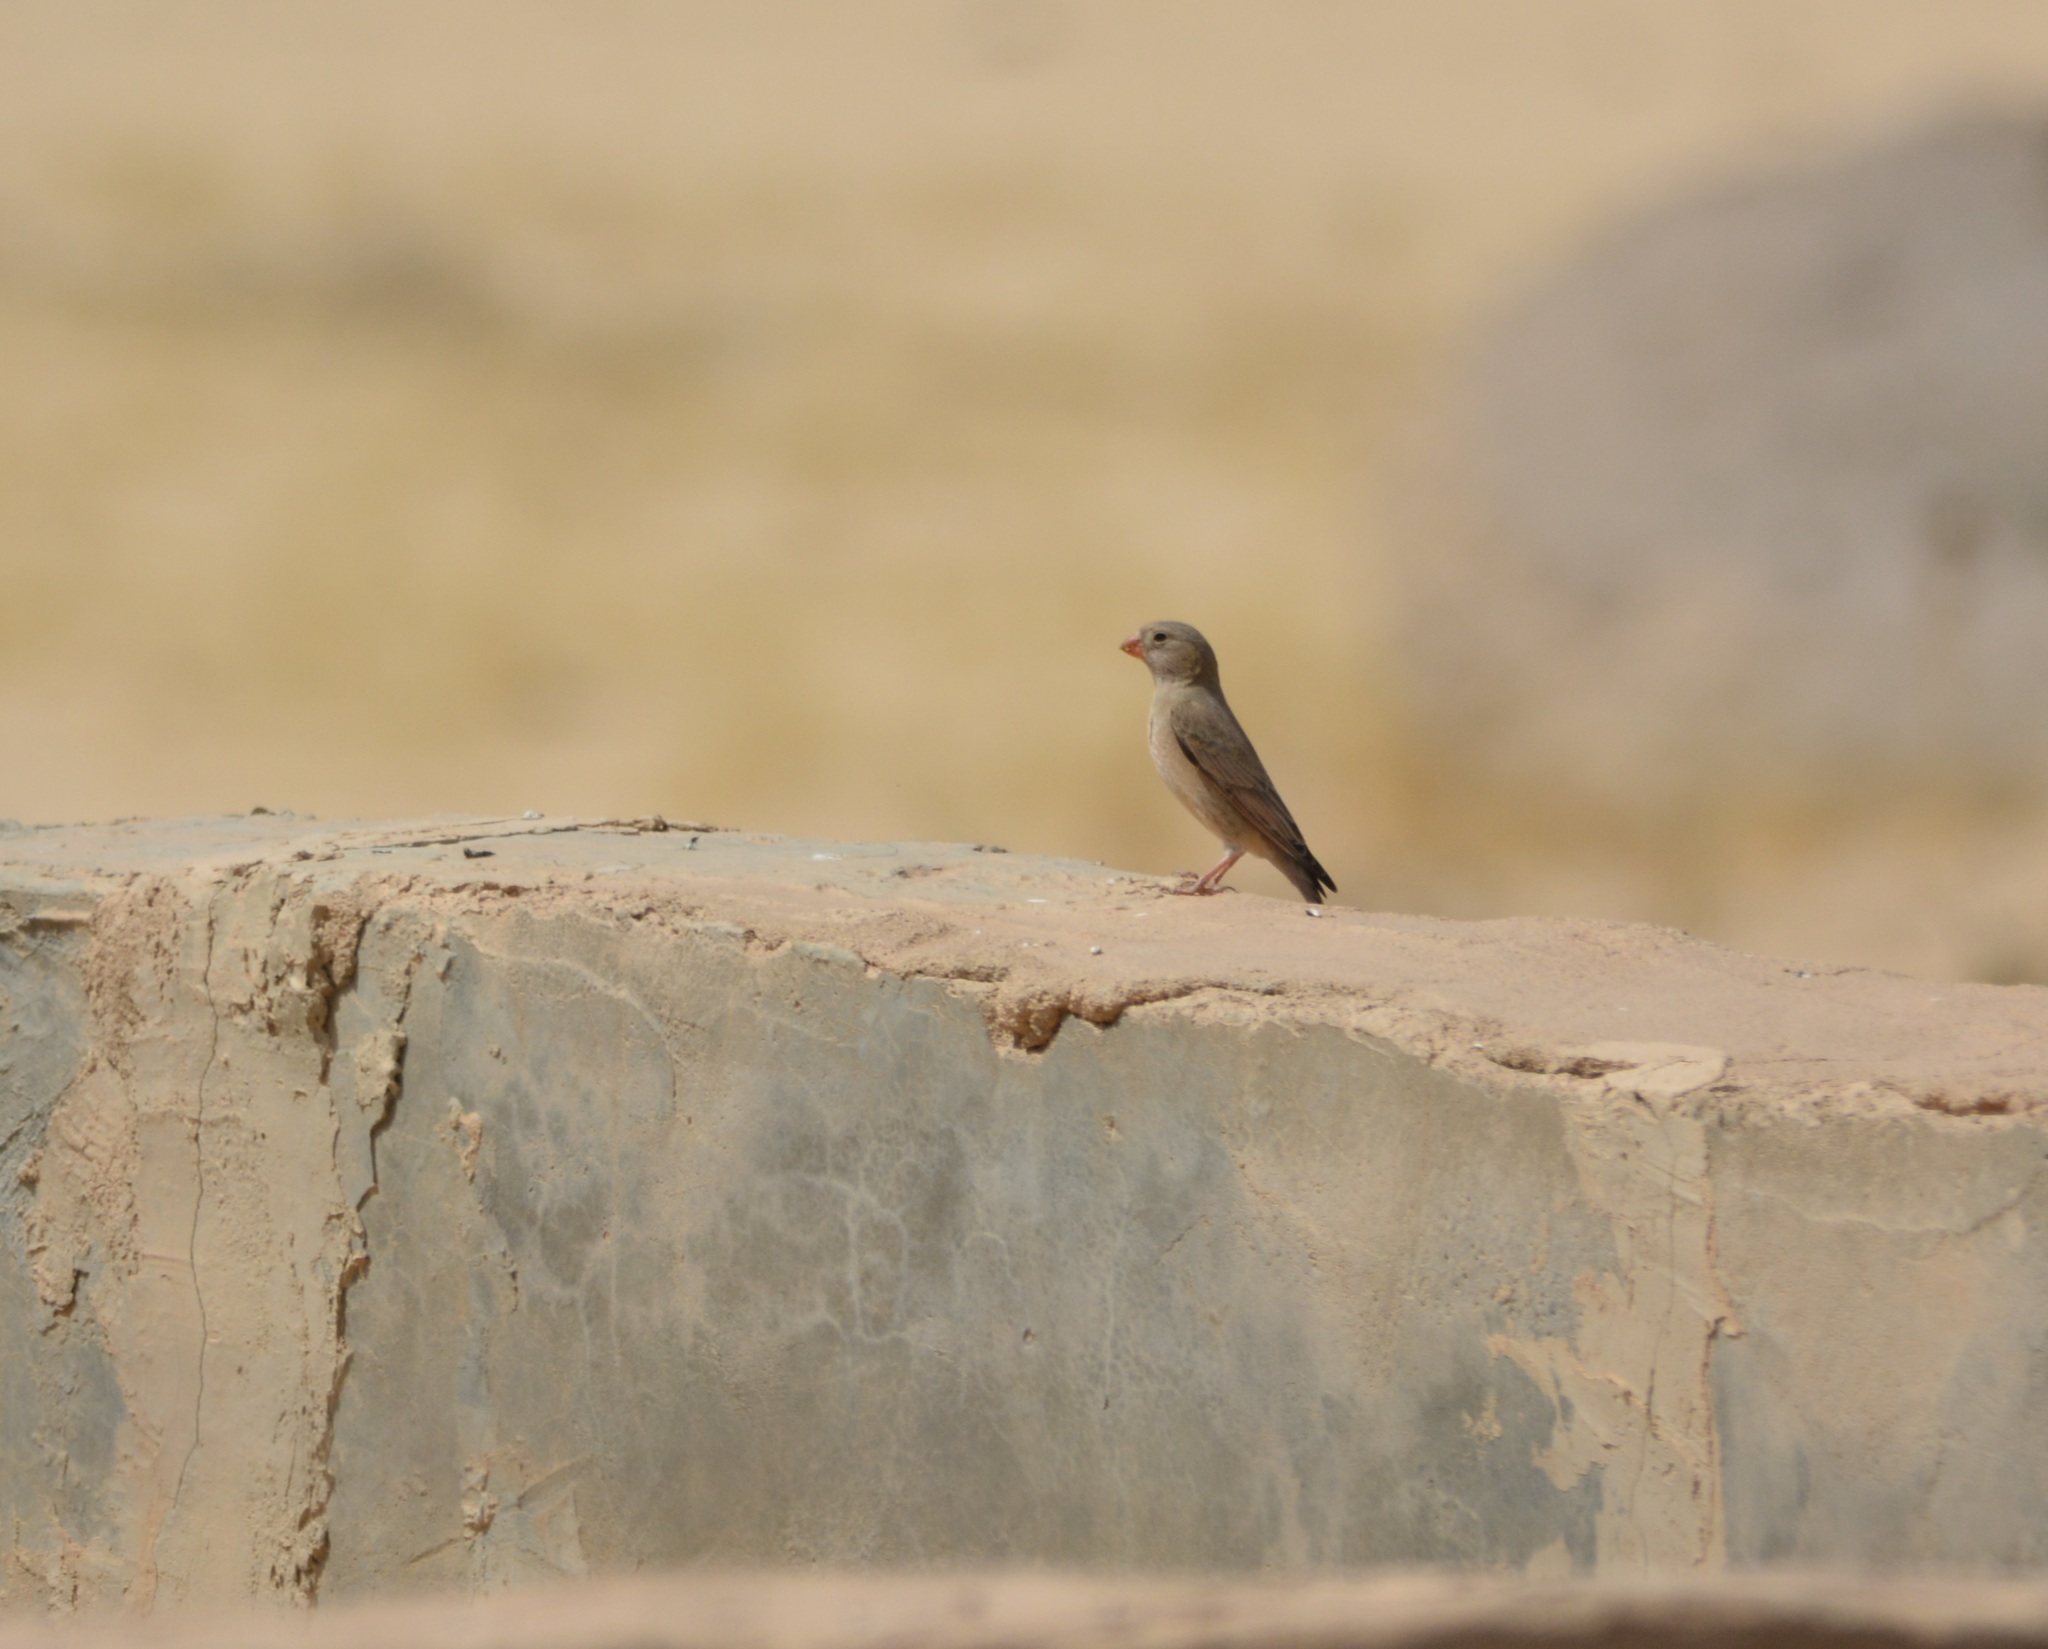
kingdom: Animalia
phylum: Chordata
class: Aves
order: Passeriformes
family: Fringillidae
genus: Bucanetes
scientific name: Bucanetes githagineus
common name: Trumpeter finch
